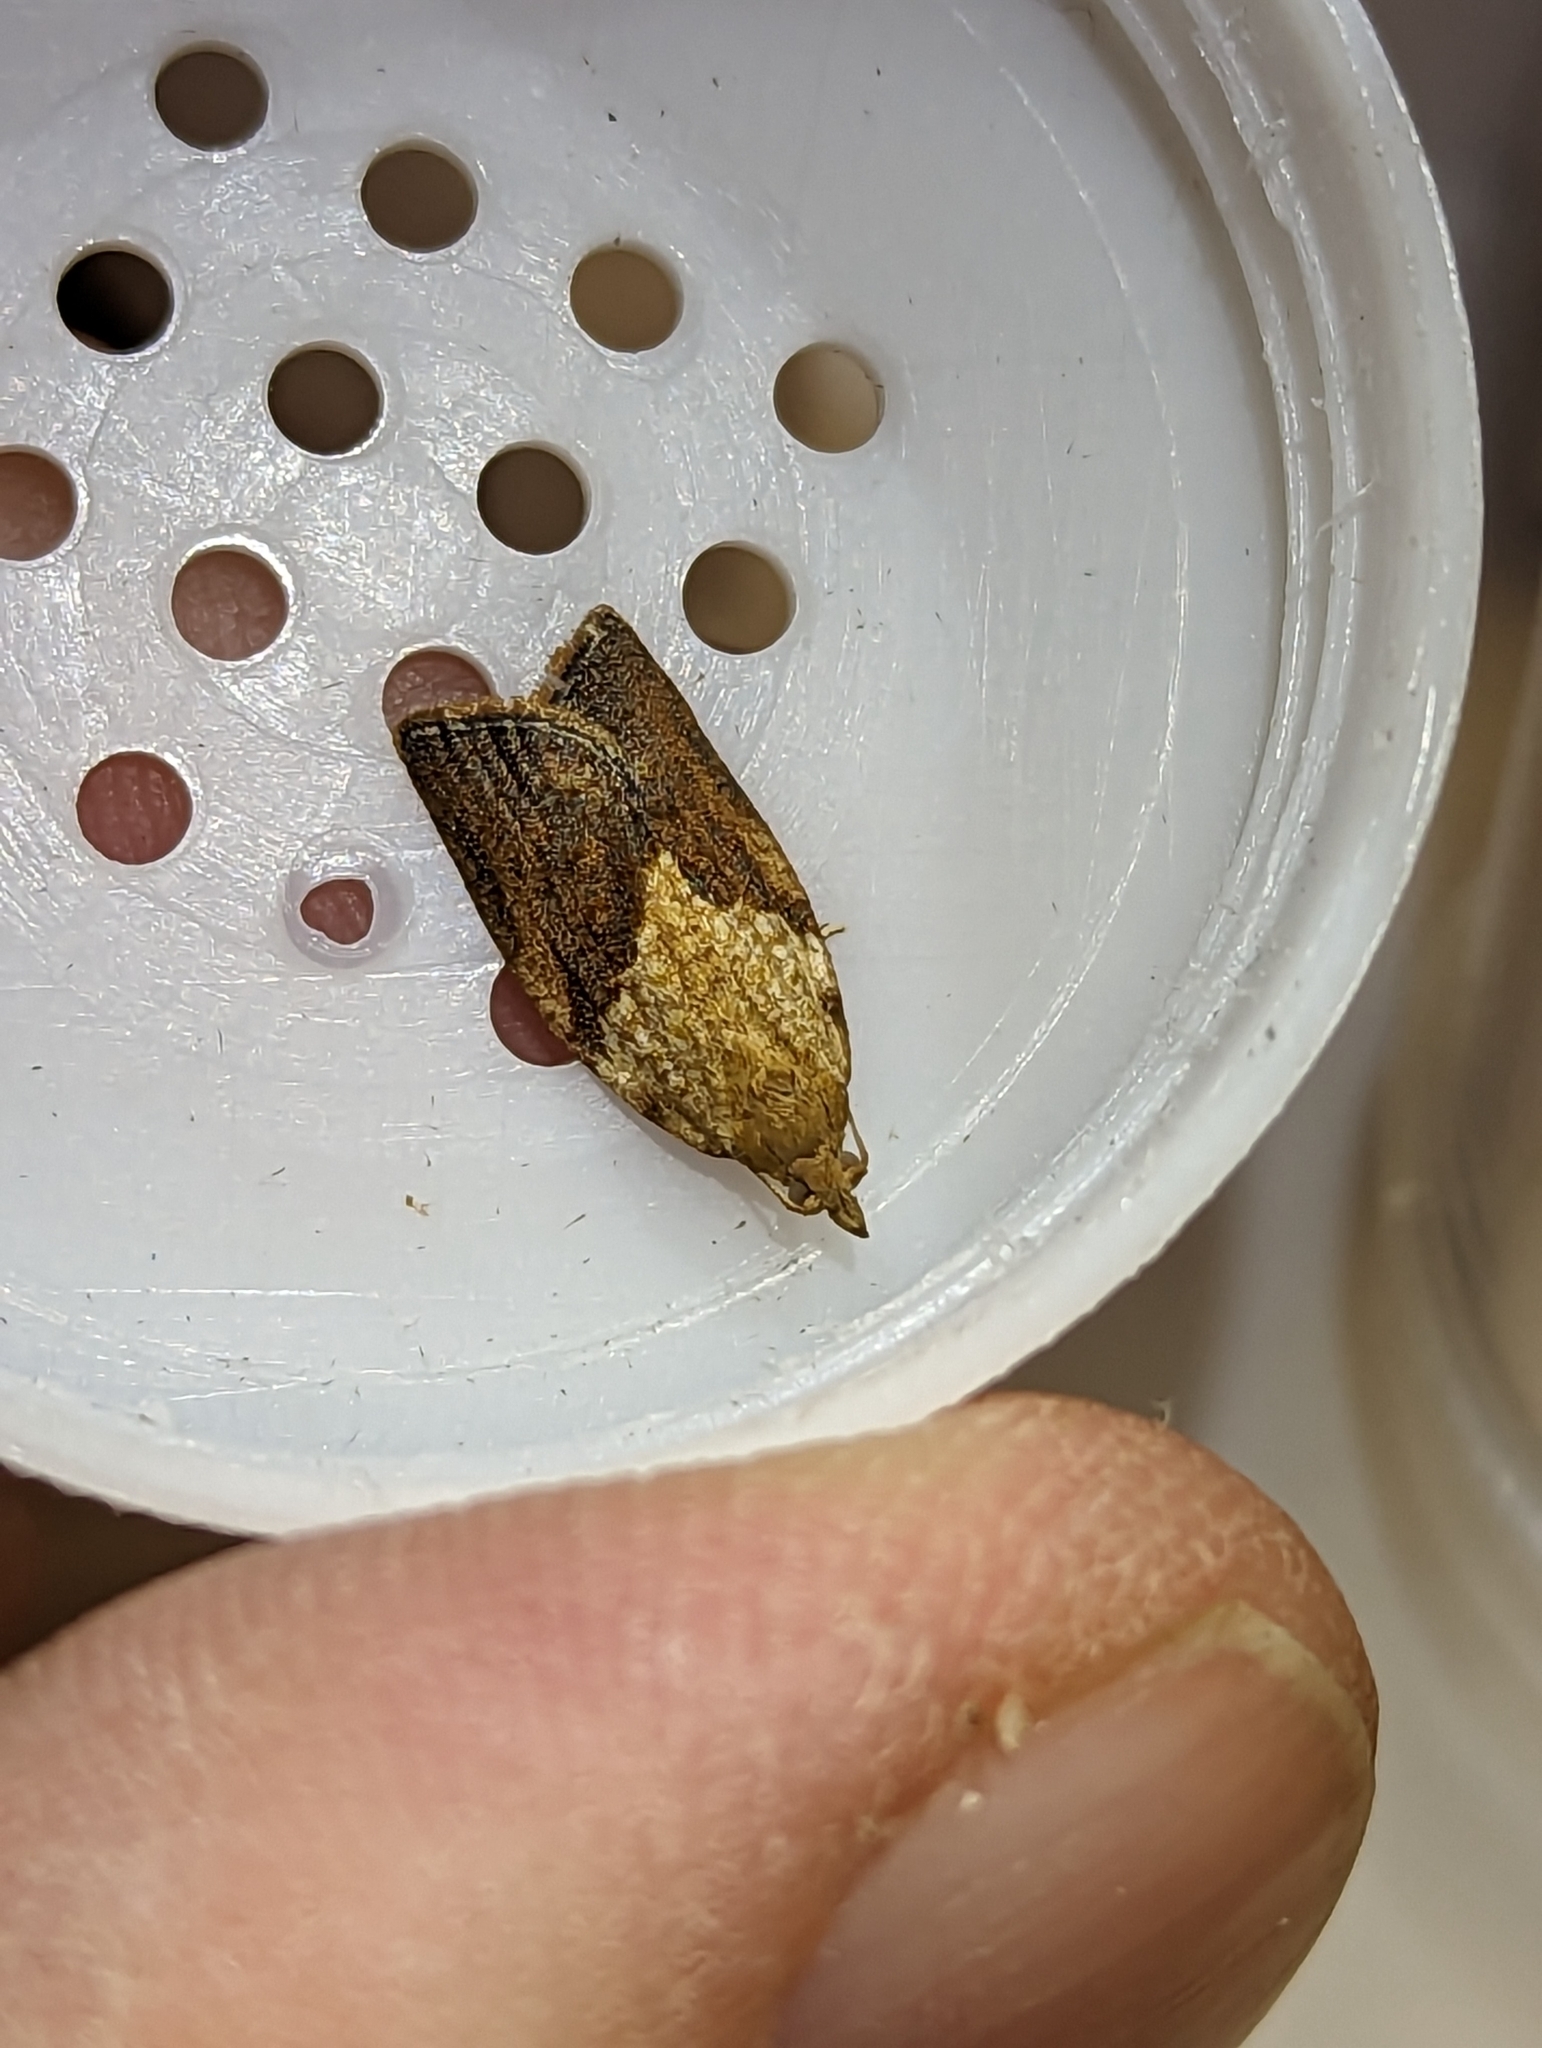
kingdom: Animalia
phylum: Arthropoda
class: Insecta
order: Lepidoptera
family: Tortricidae
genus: Epiphyas
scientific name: Epiphyas postvittana
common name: Light brown apple moth
